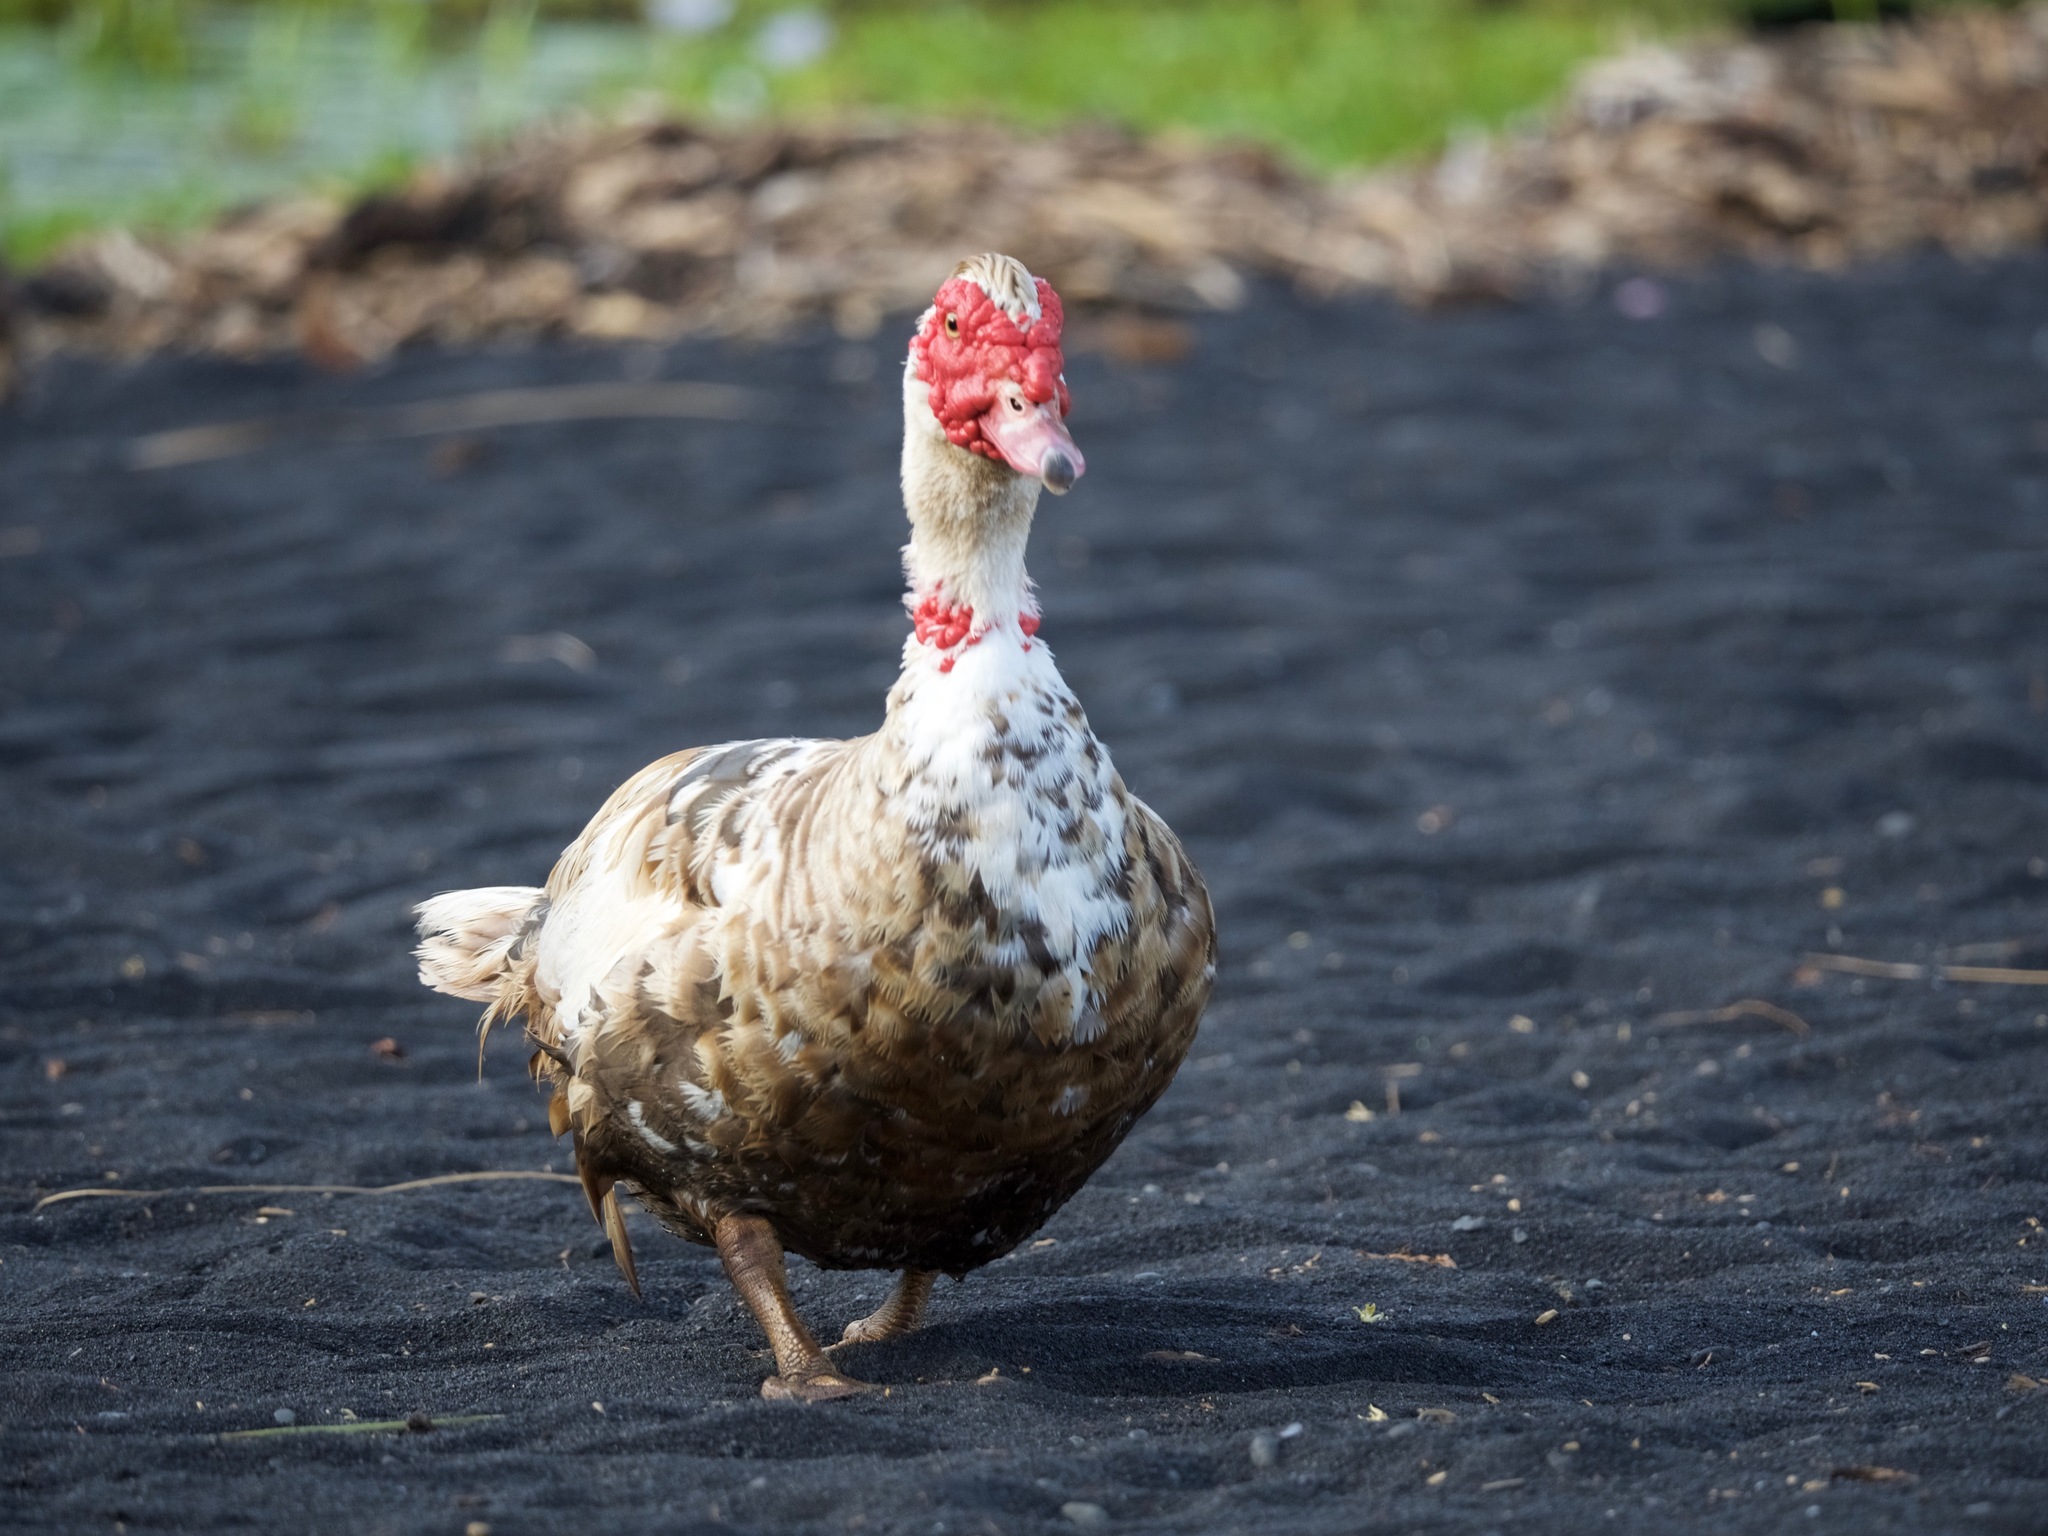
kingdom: Animalia
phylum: Chordata
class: Aves
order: Anseriformes
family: Anatidae
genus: Cairina
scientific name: Cairina moschata
